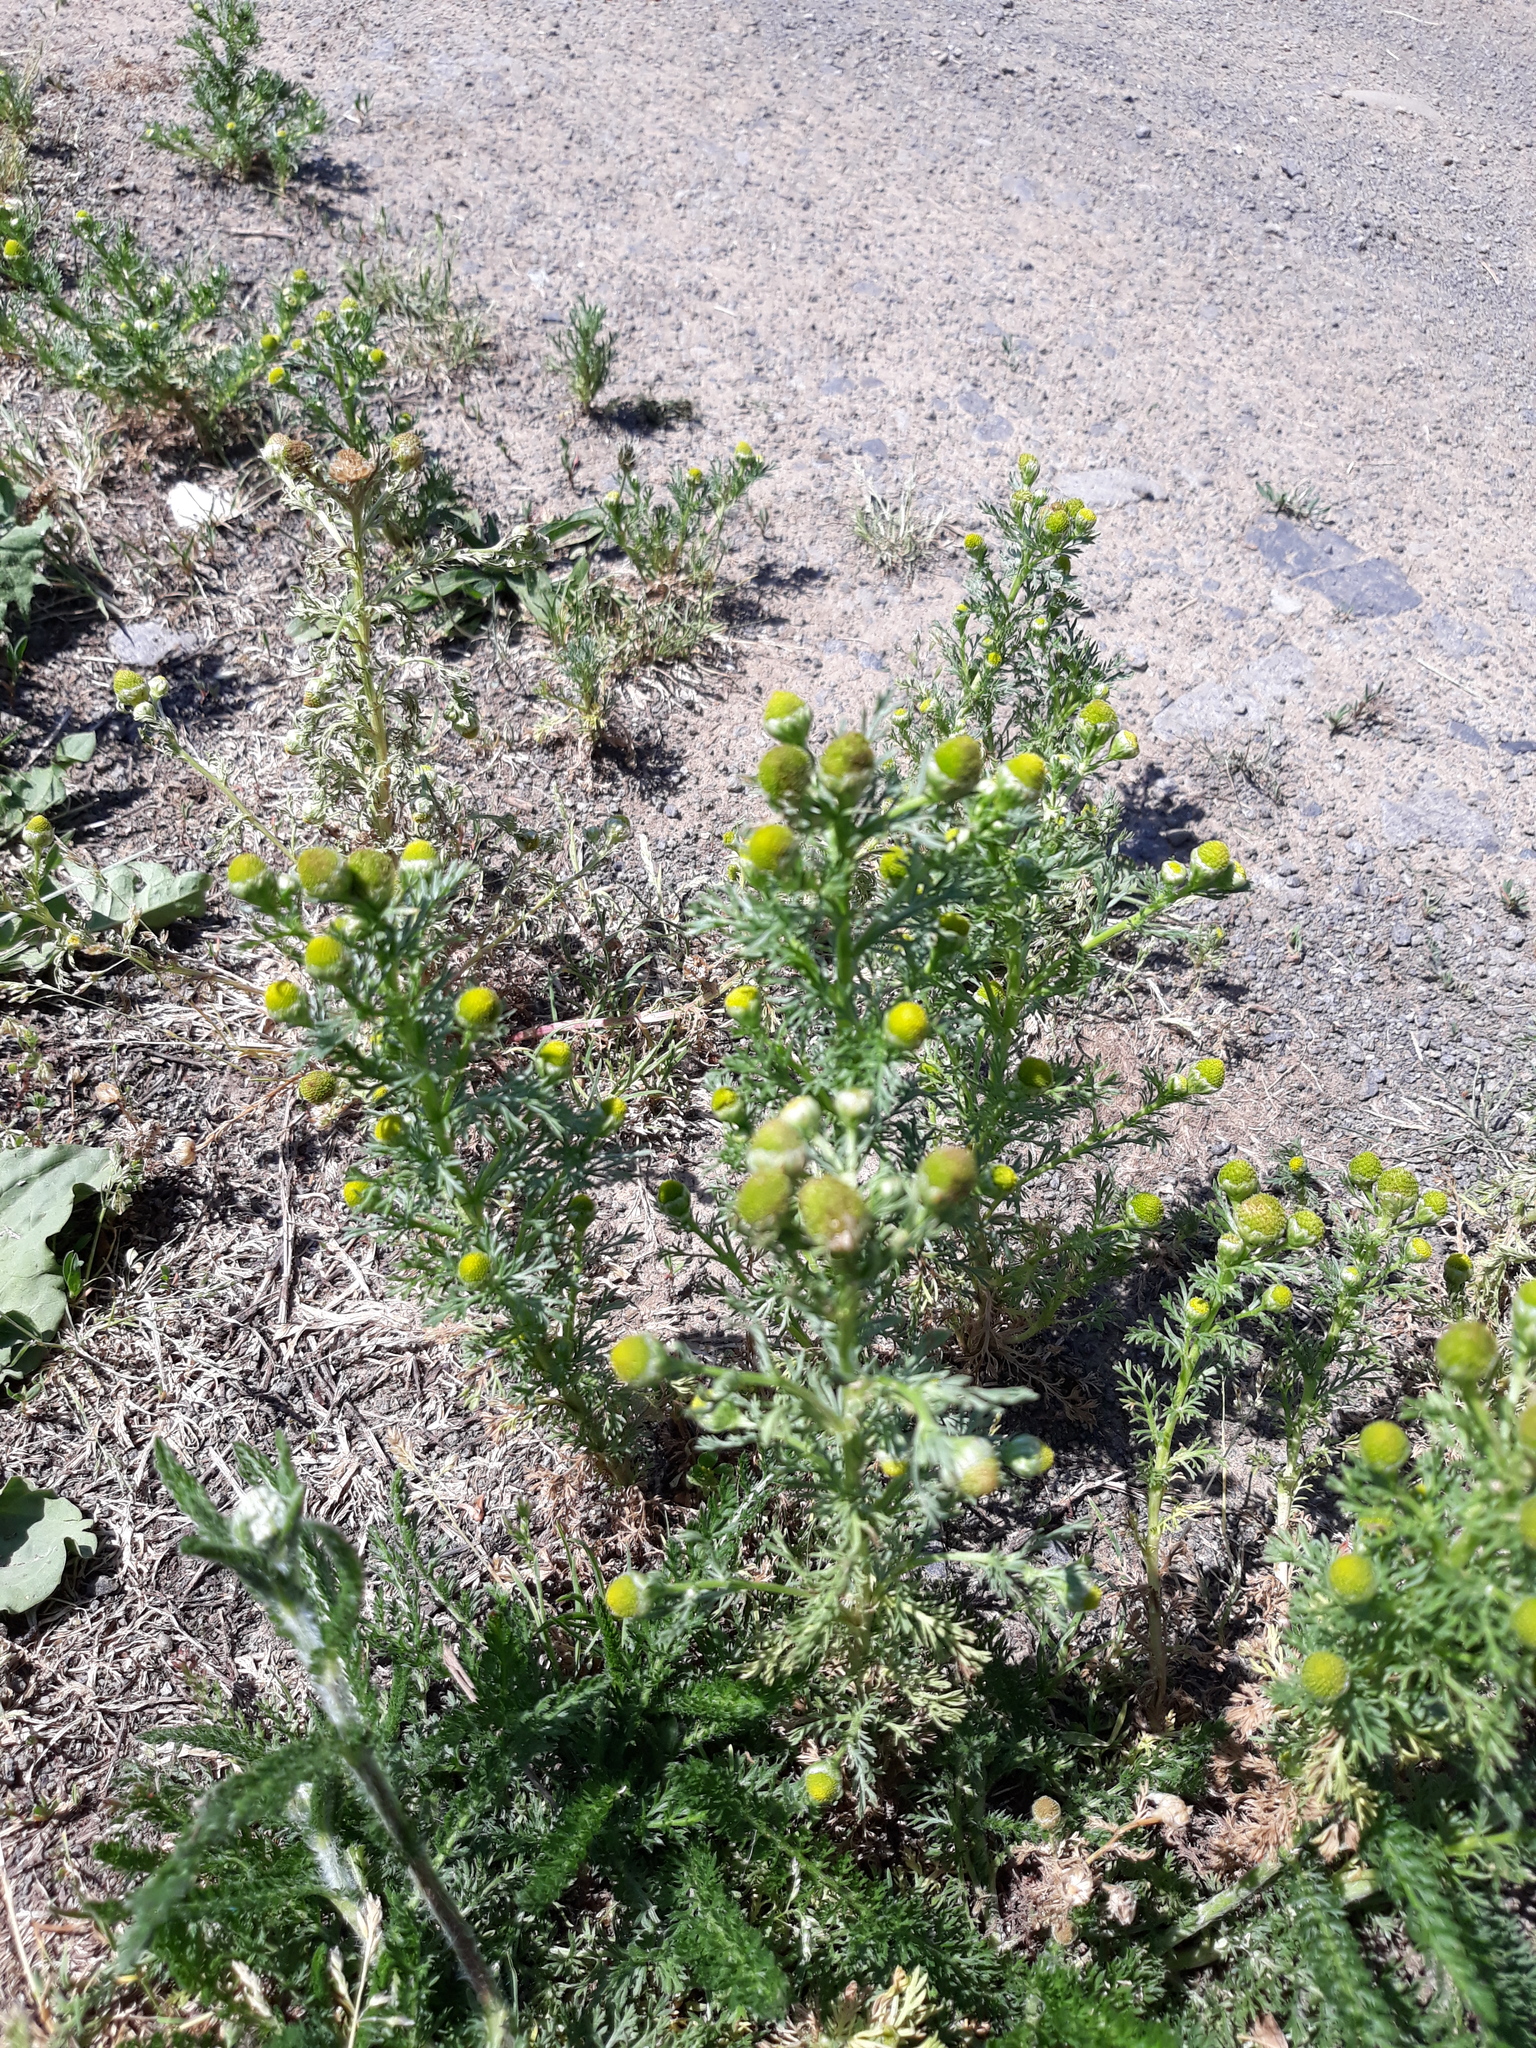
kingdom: Plantae
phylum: Tracheophyta
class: Magnoliopsida
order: Asterales
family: Asteraceae
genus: Matricaria
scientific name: Matricaria discoidea
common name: Disc mayweed
